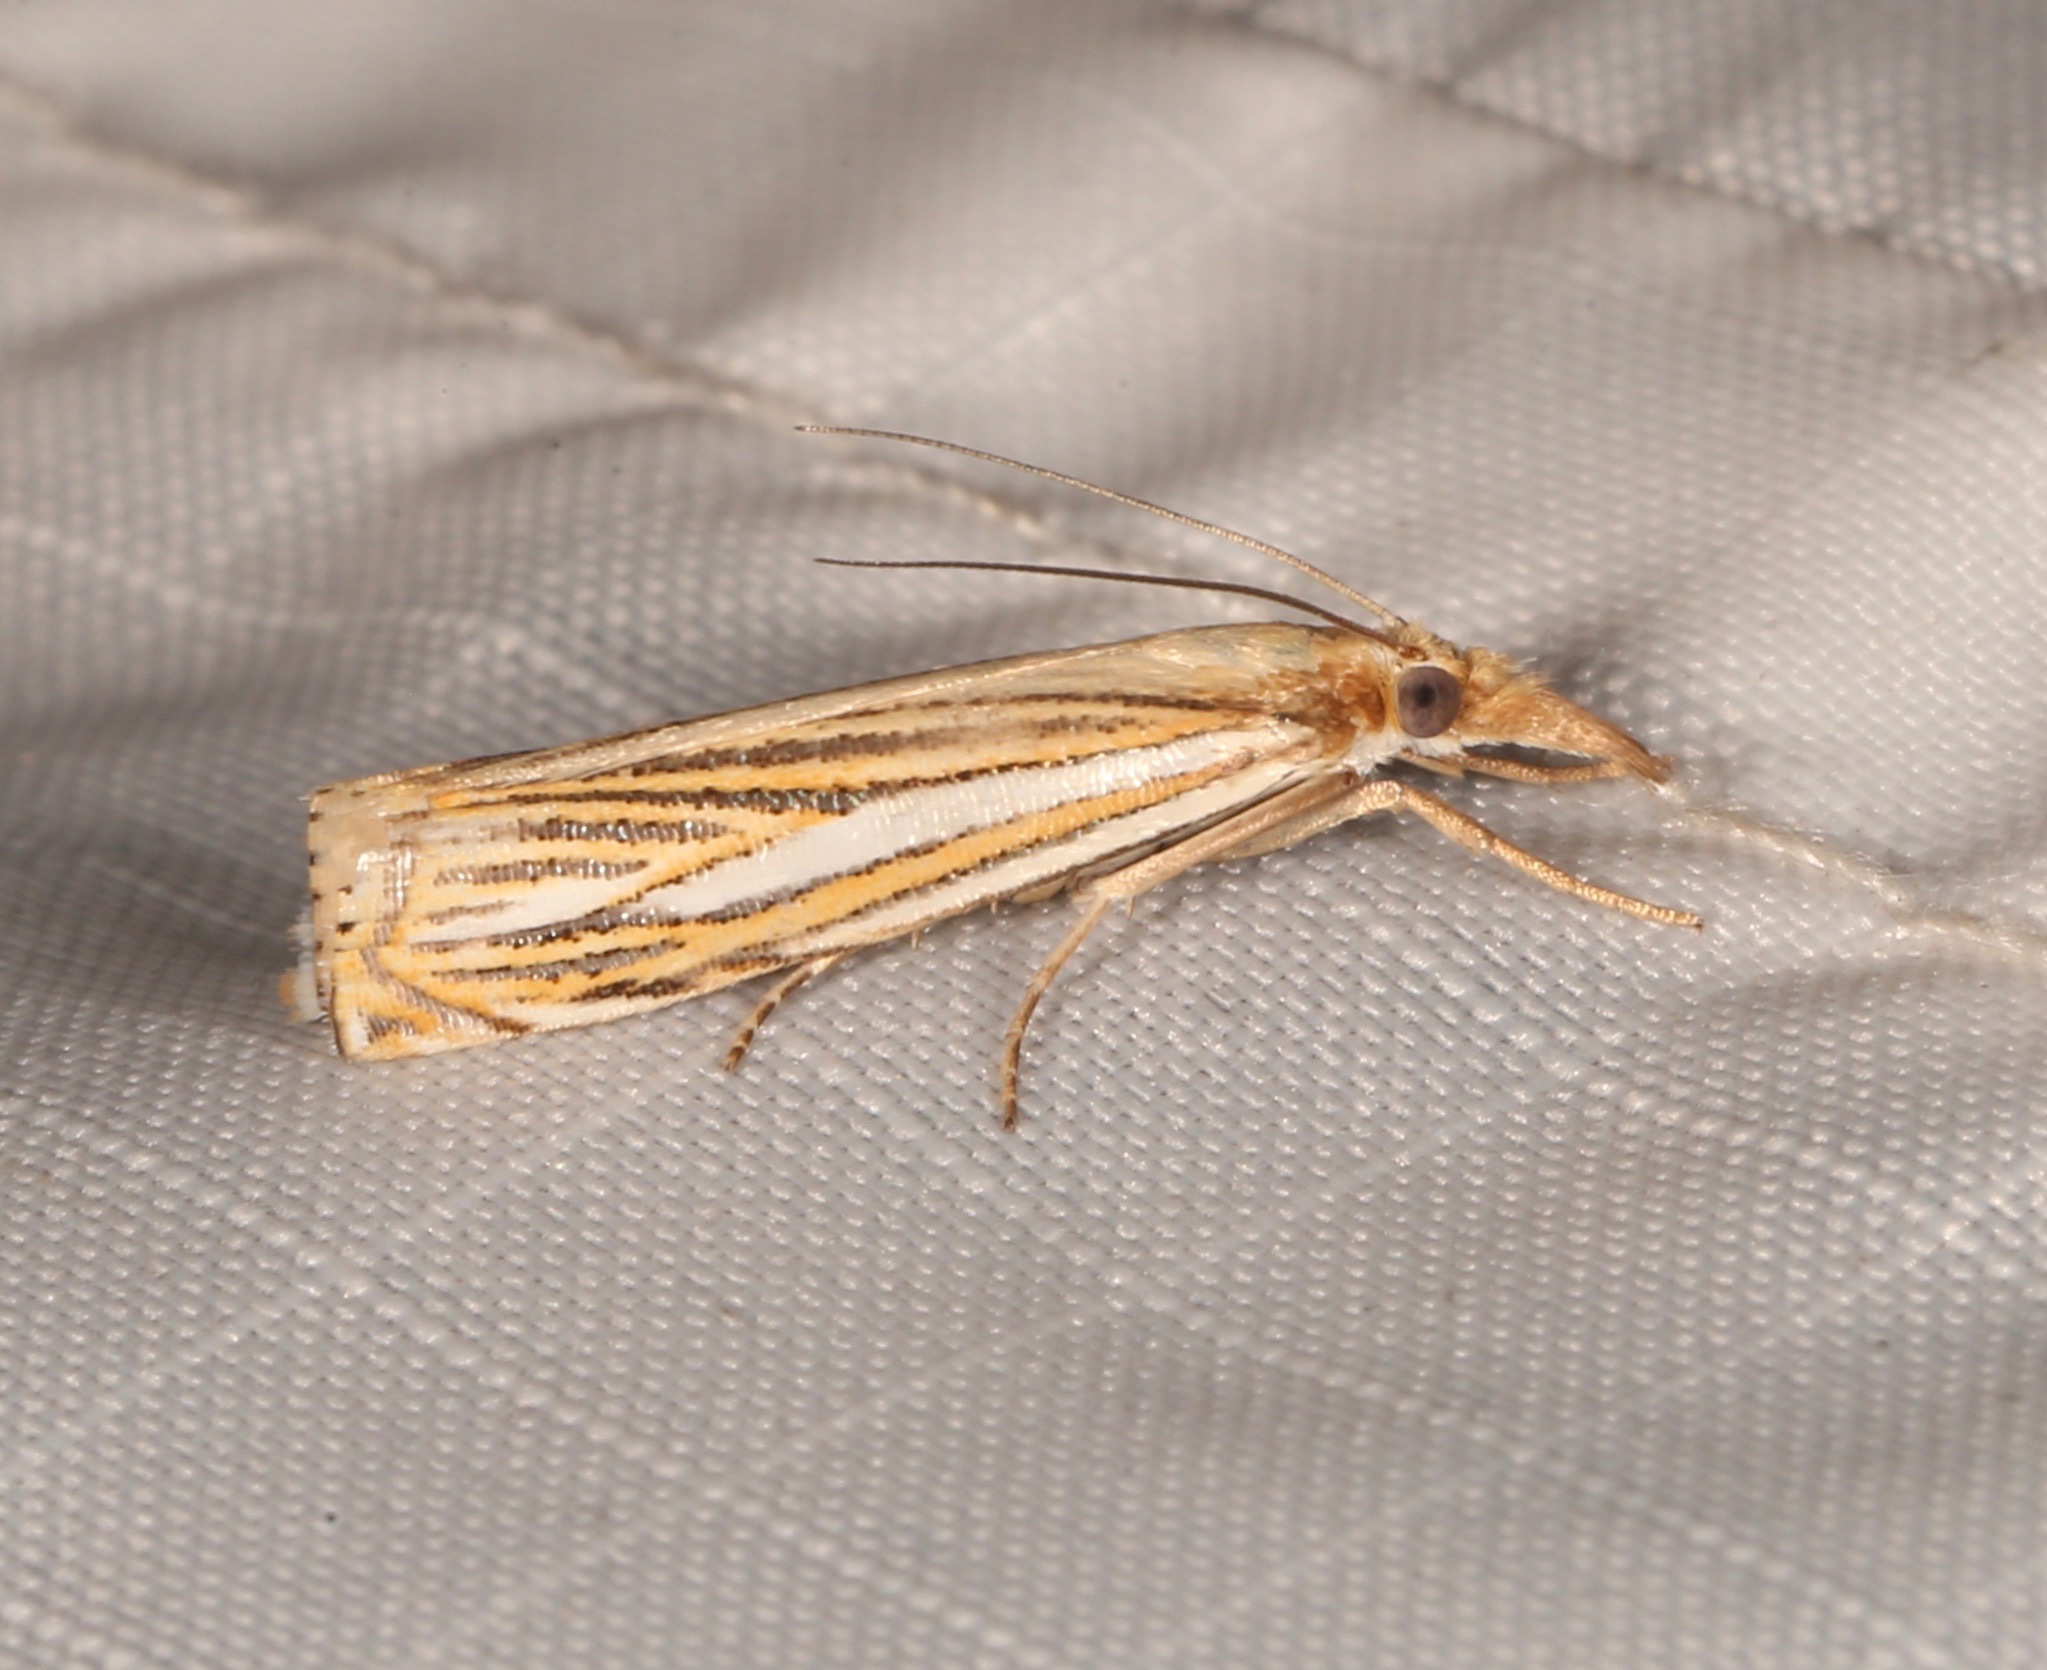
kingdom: Animalia
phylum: Arthropoda
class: Insecta
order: Lepidoptera
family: Crambidae
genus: Crambus
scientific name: Crambus multilinellus
